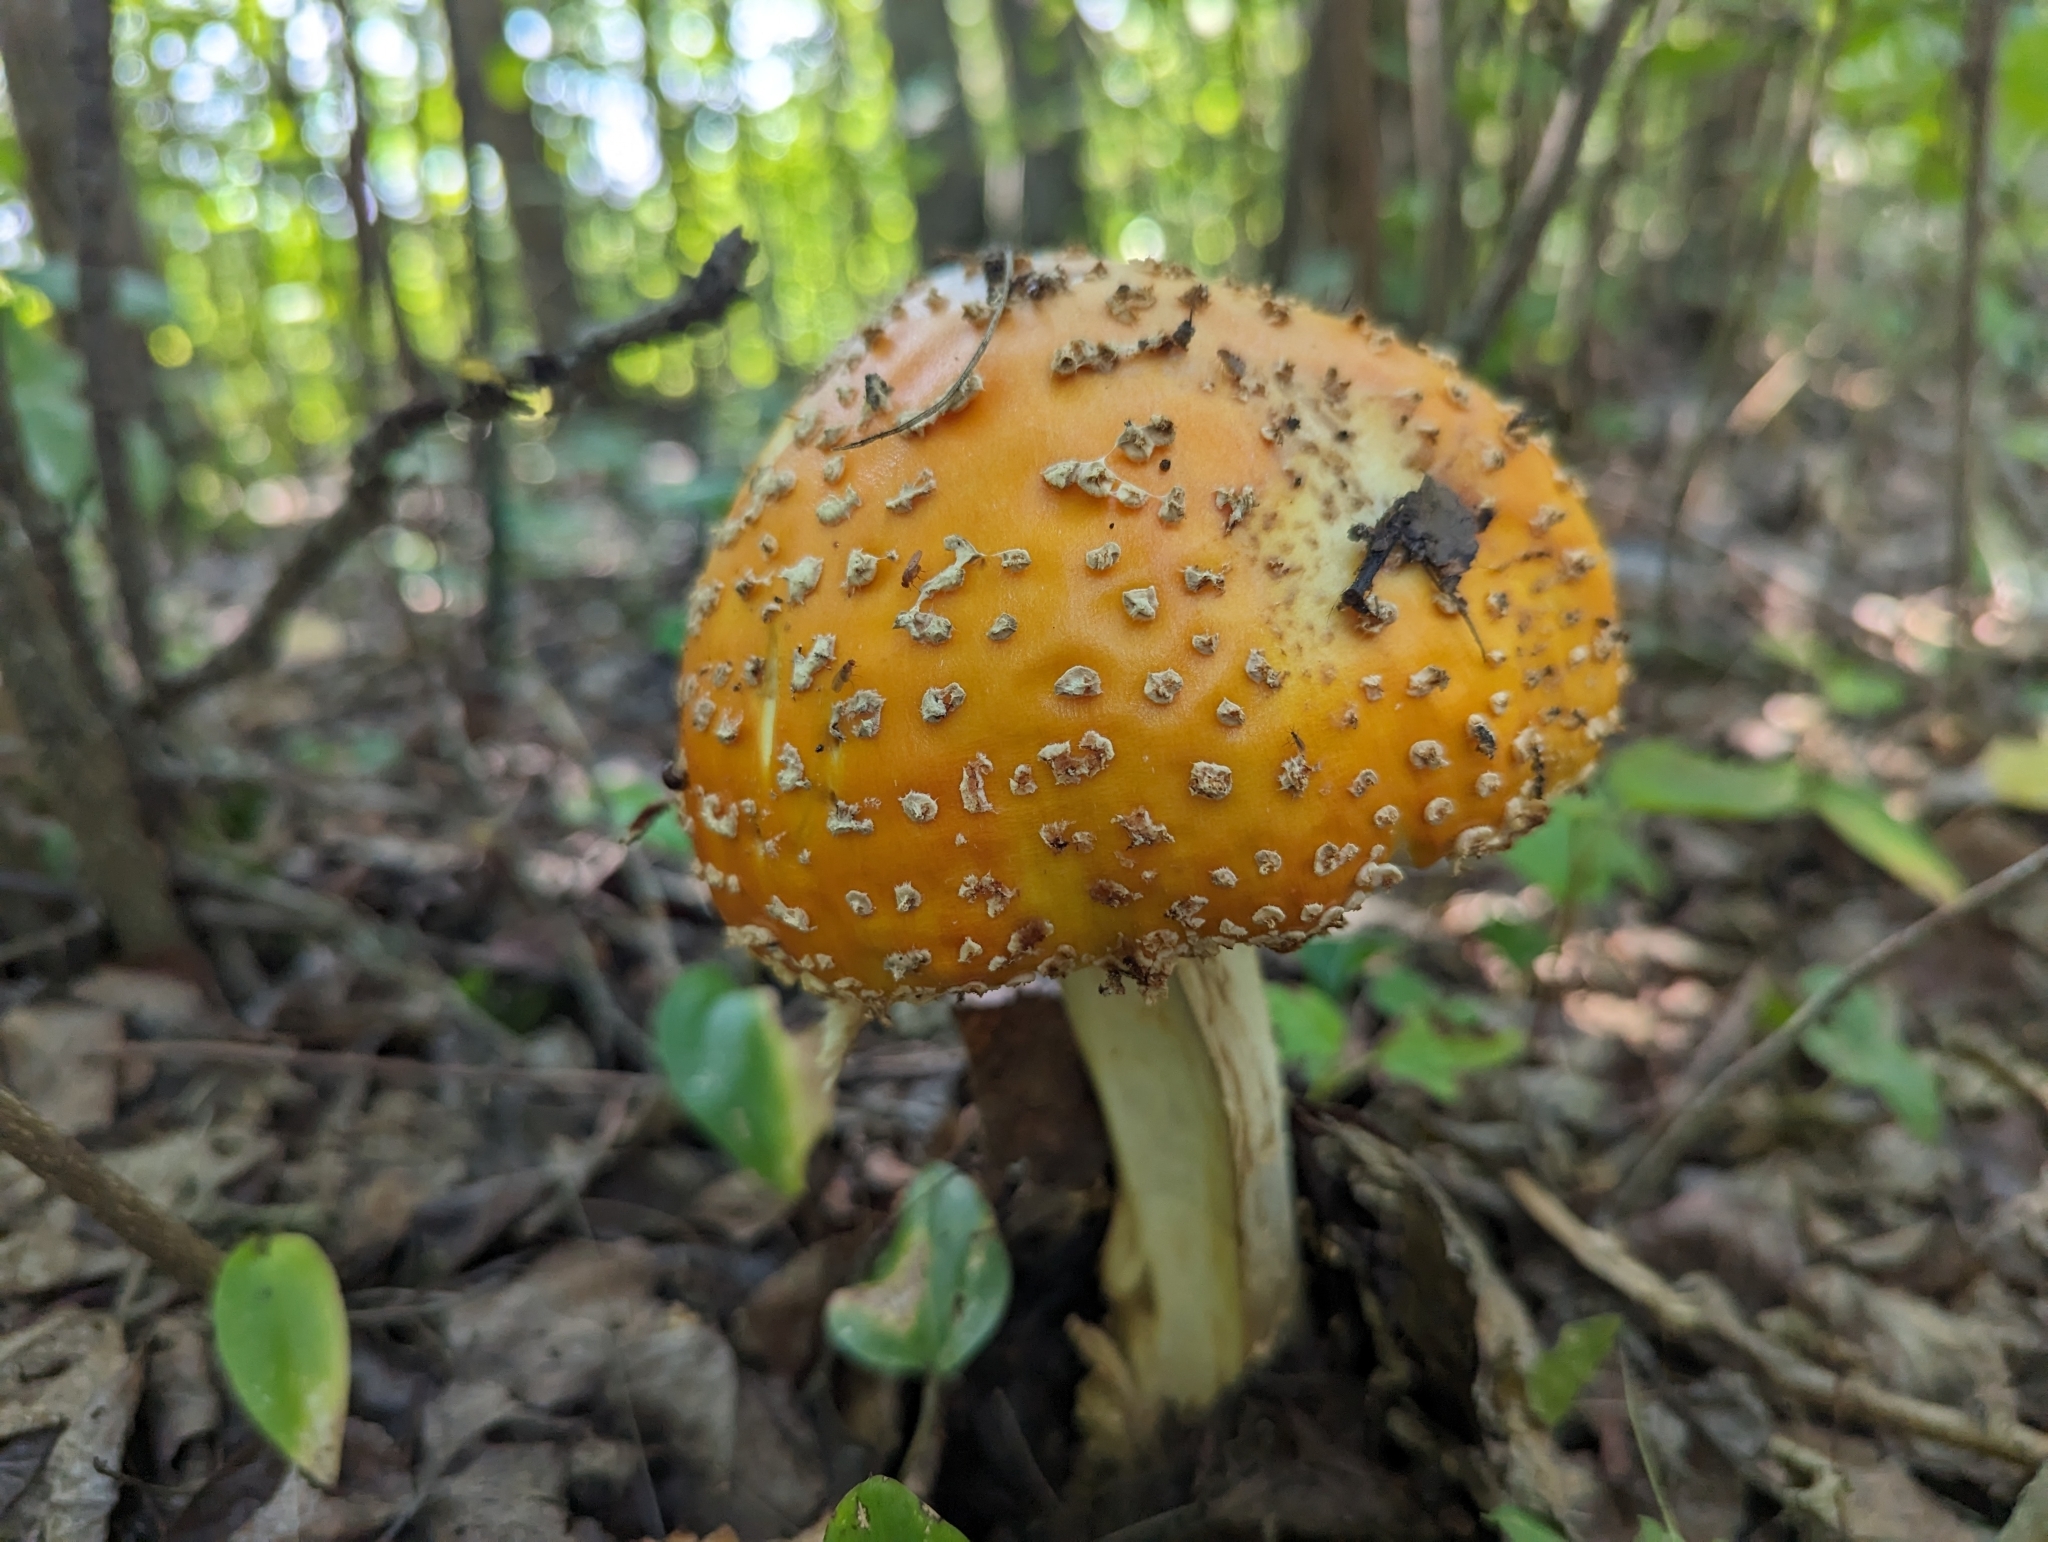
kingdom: Fungi
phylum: Basidiomycota
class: Agaricomycetes
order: Agaricales
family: Amanitaceae
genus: Amanita
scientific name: Amanita muscaria
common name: Fly agaric
